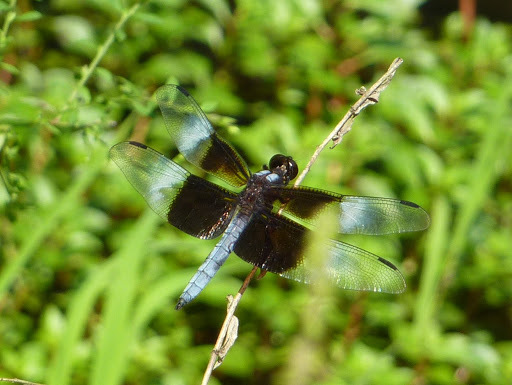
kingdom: Animalia
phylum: Arthropoda
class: Insecta
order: Odonata
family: Libellulidae
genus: Libellula
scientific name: Libellula luctuosa
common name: Widow skimmer
